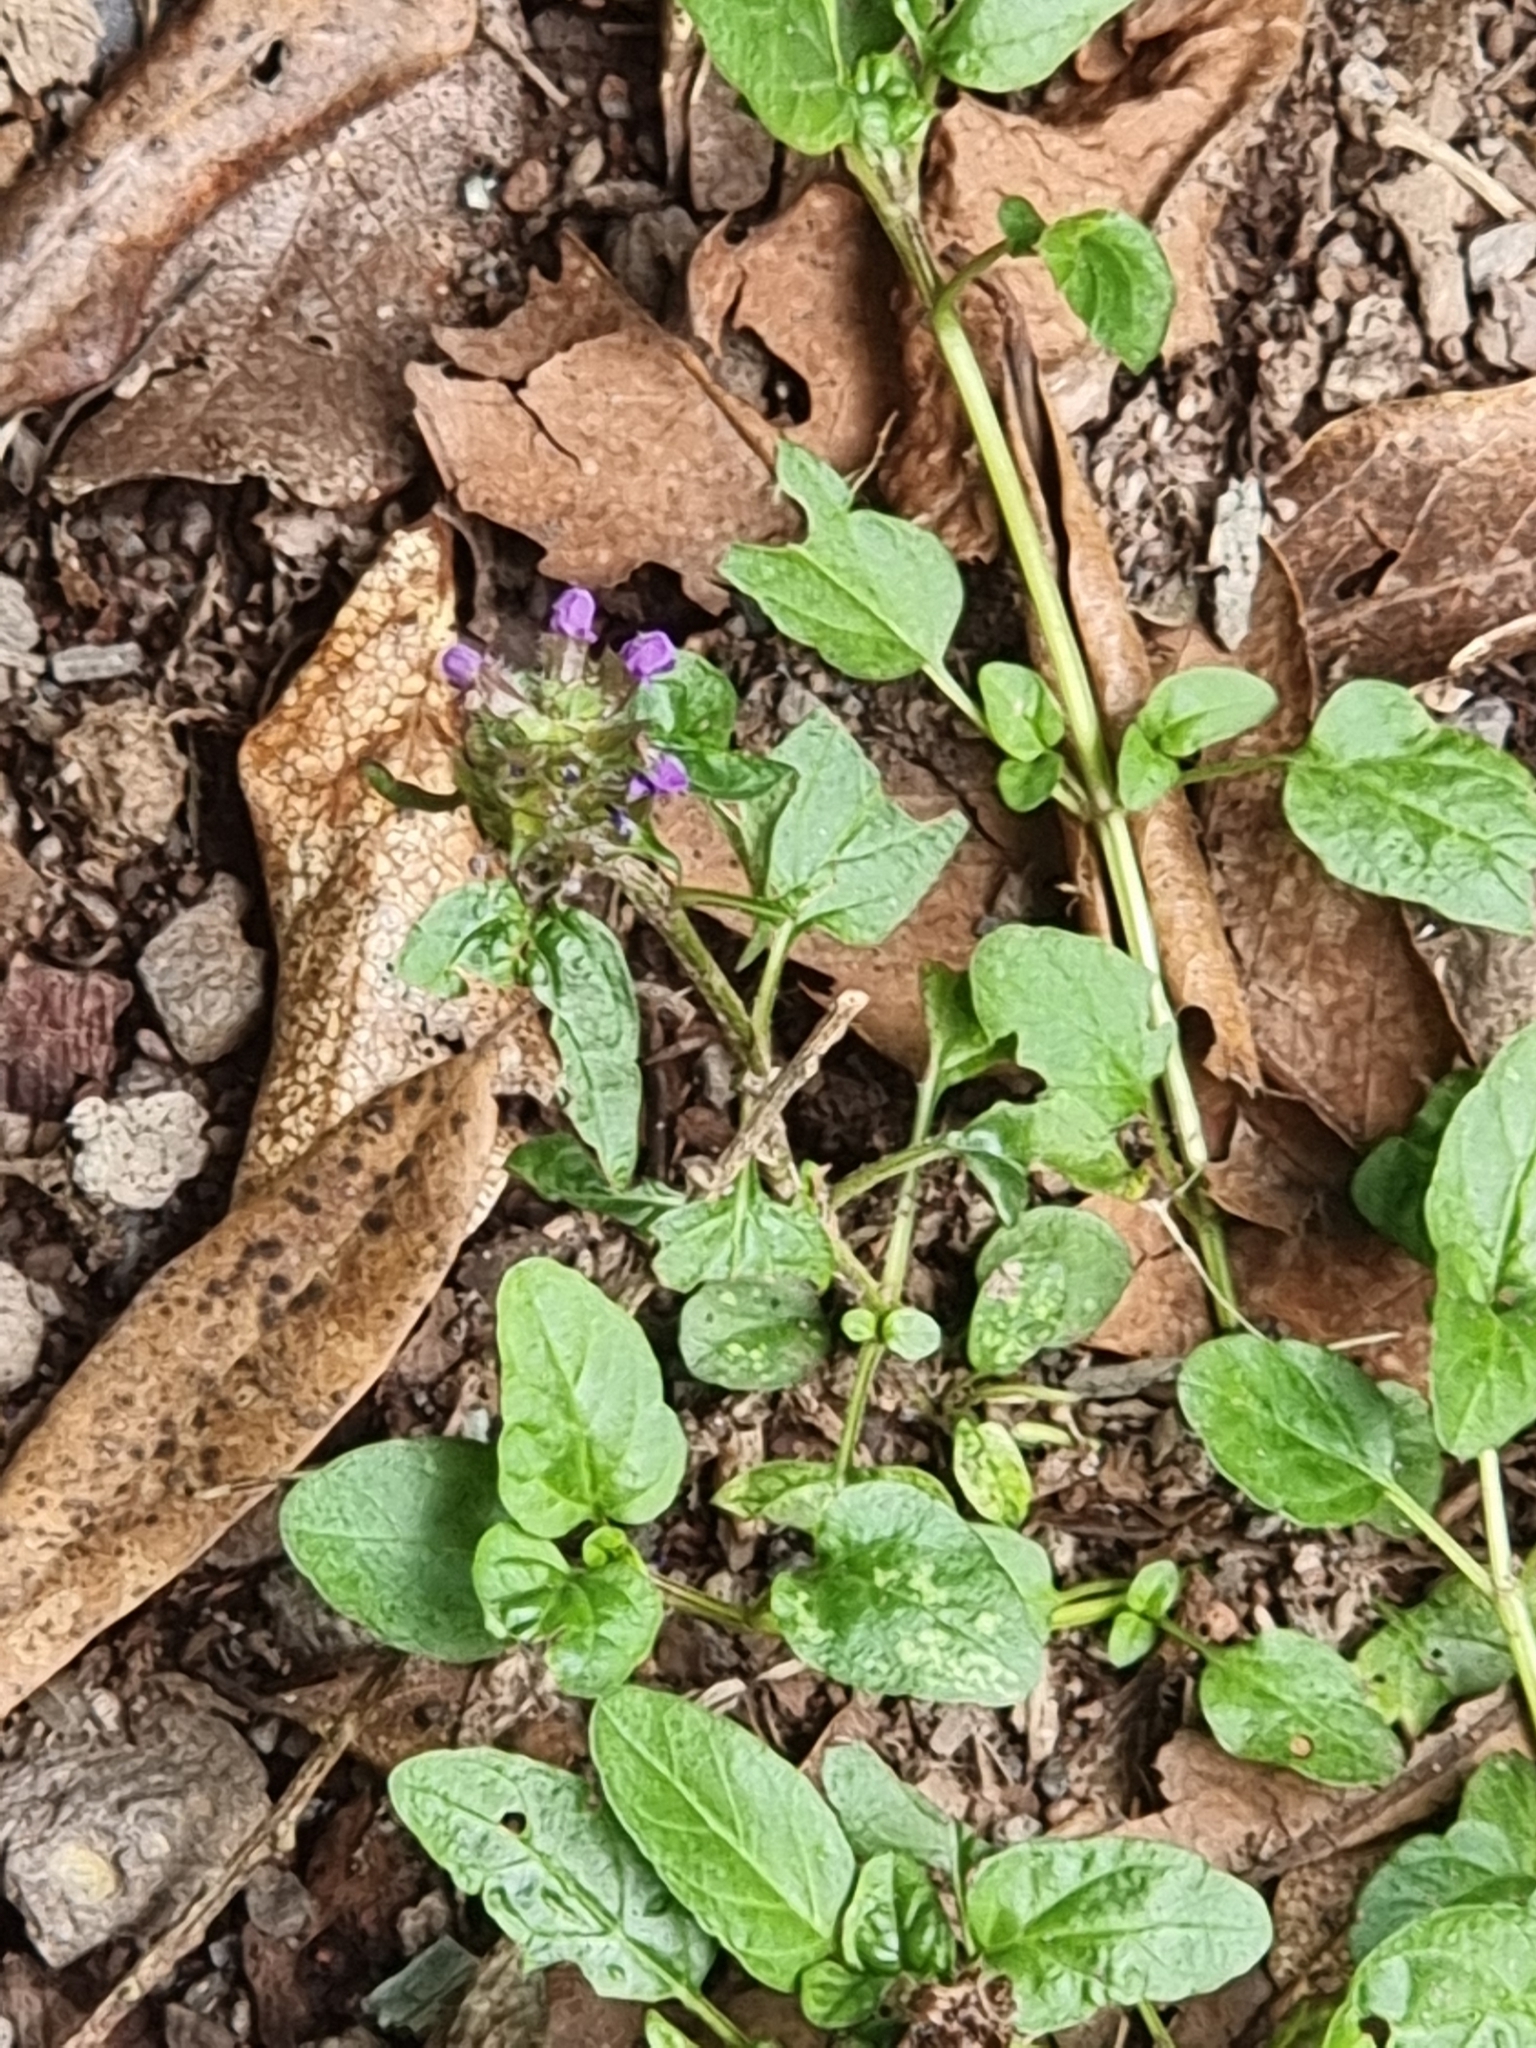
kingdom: Plantae
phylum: Tracheophyta
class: Magnoliopsida
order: Lamiales
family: Lamiaceae
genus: Prunella
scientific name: Prunella vulgaris
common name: Heal-all
